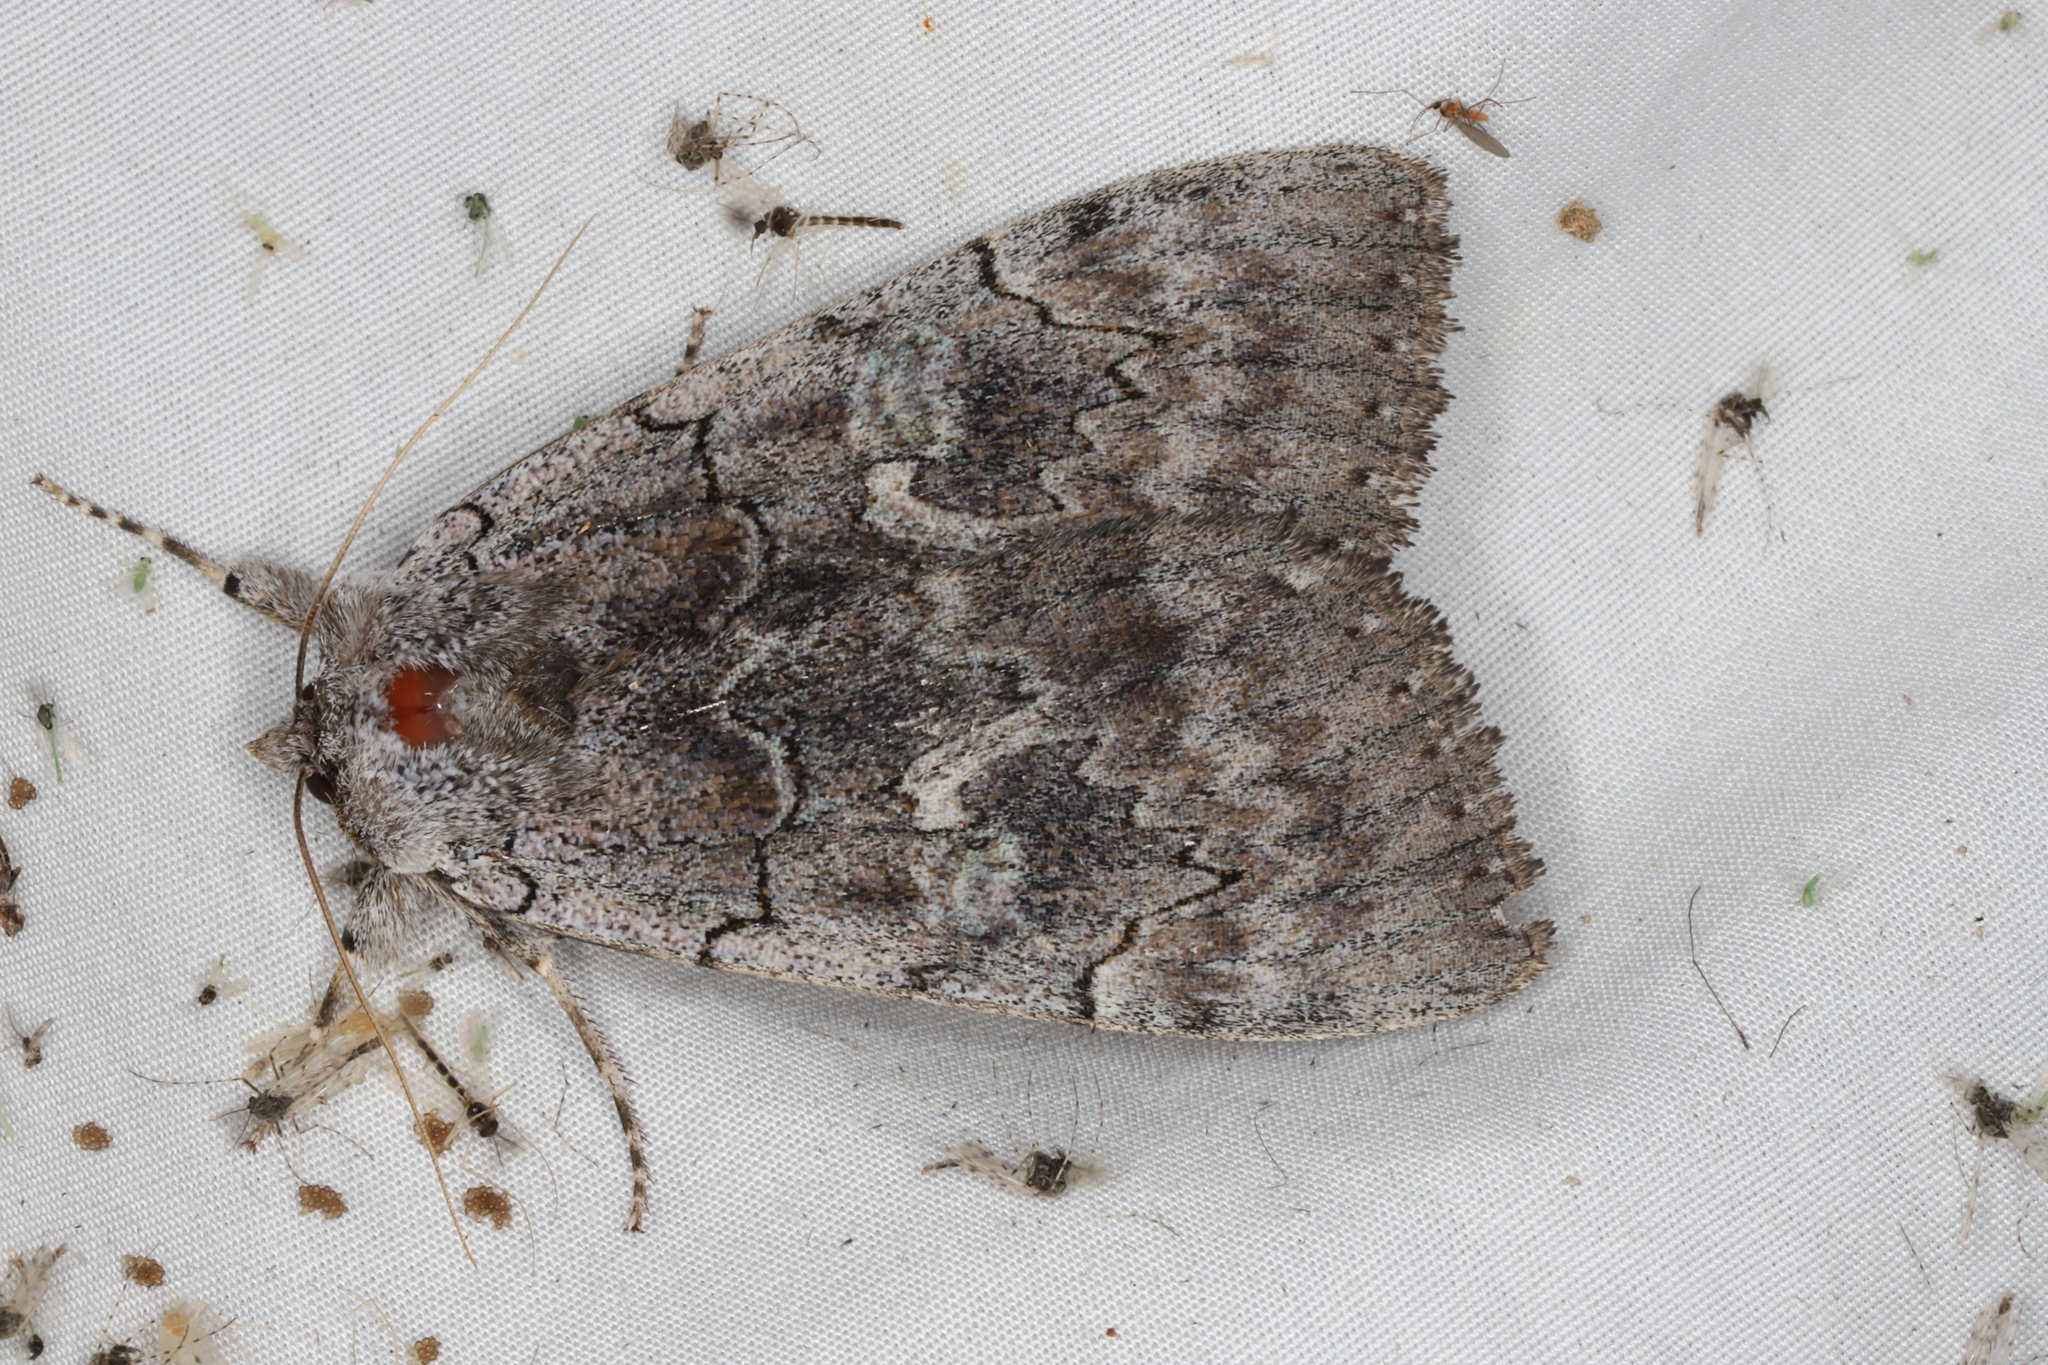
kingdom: Animalia
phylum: Arthropoda
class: Insecta
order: Lepidoptera
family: Erebidae
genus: Catocala
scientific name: Catocala concumbens
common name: Pink underwing
